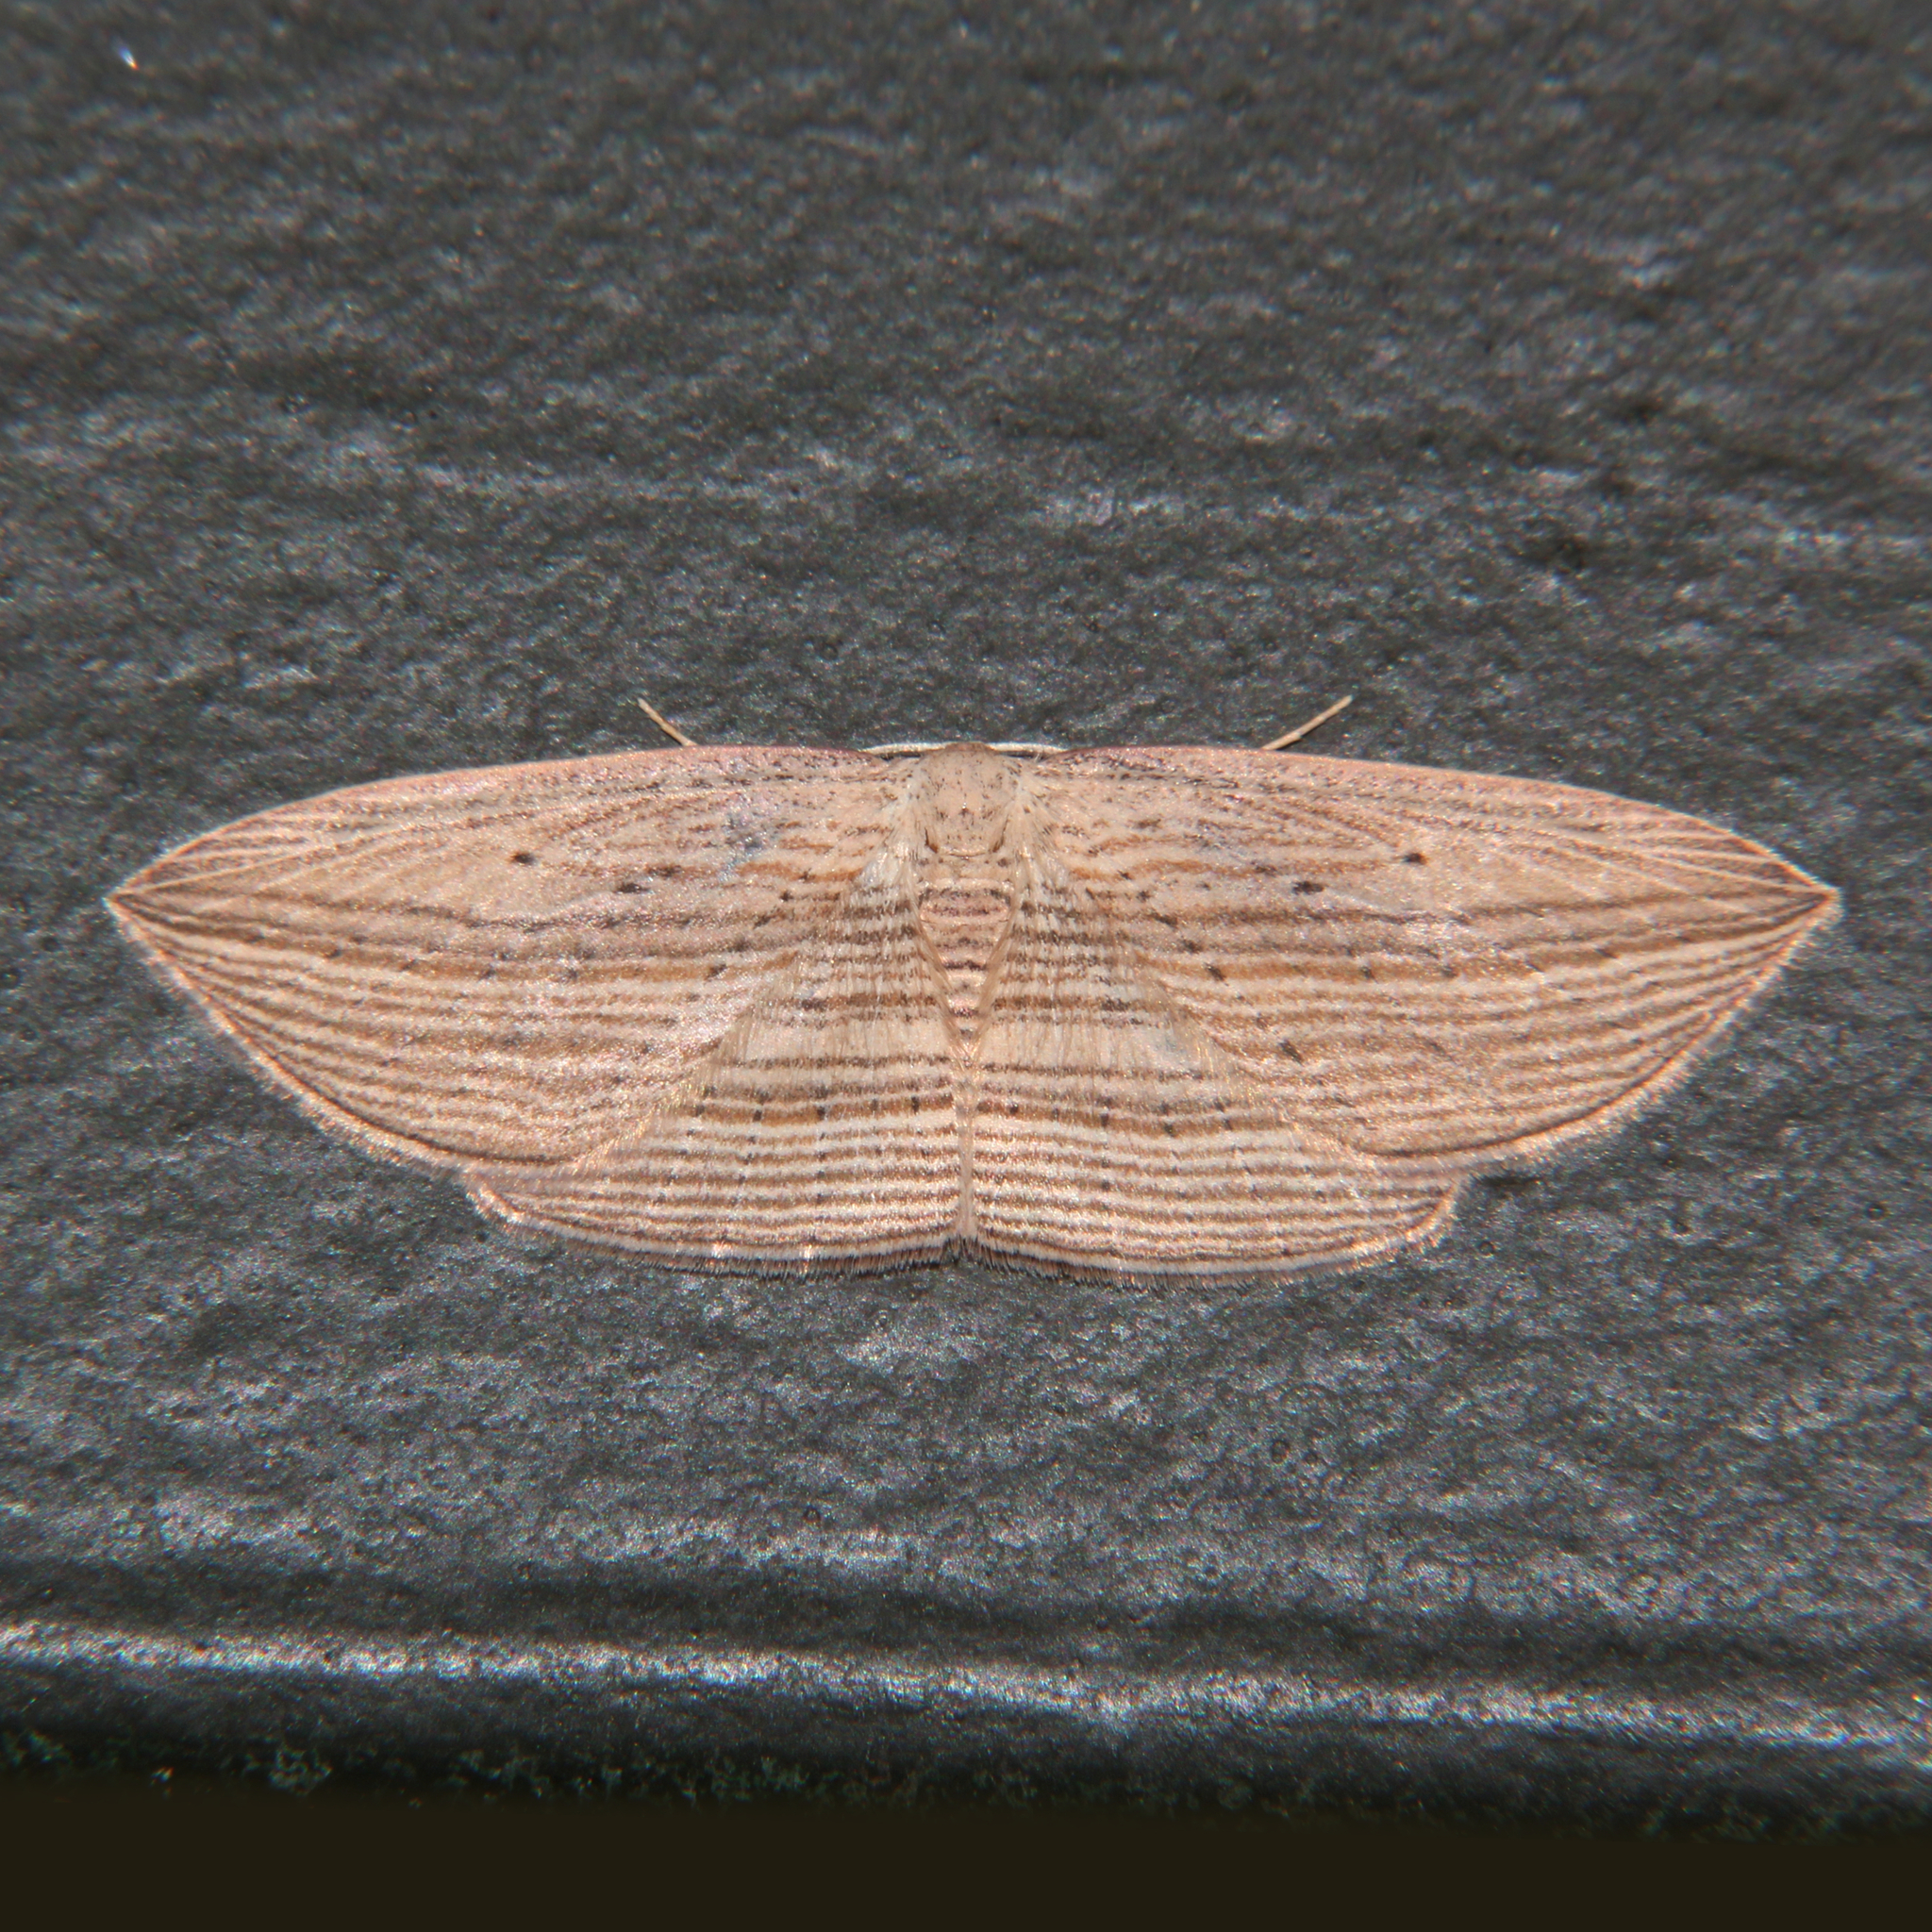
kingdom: Animalia
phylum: Arthropoda
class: Insecta
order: Lepidoptera
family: Geometridae
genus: Epiphryne
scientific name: Epiphryne verriculata
